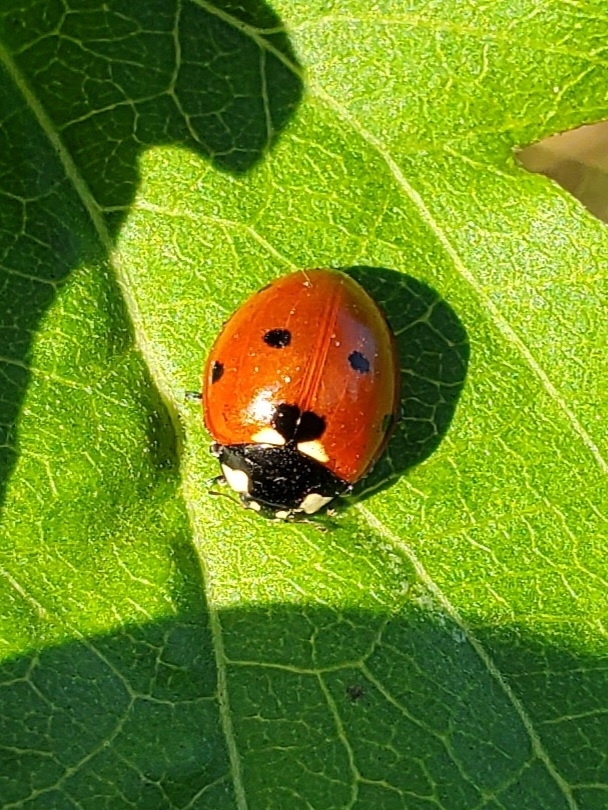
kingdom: Animalia
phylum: Arthropoda
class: Insecta
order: Coleoptera
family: Coccinellidae
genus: Coccinella
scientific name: Coccinella septempunctata
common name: Sevenspotted lady beetle
